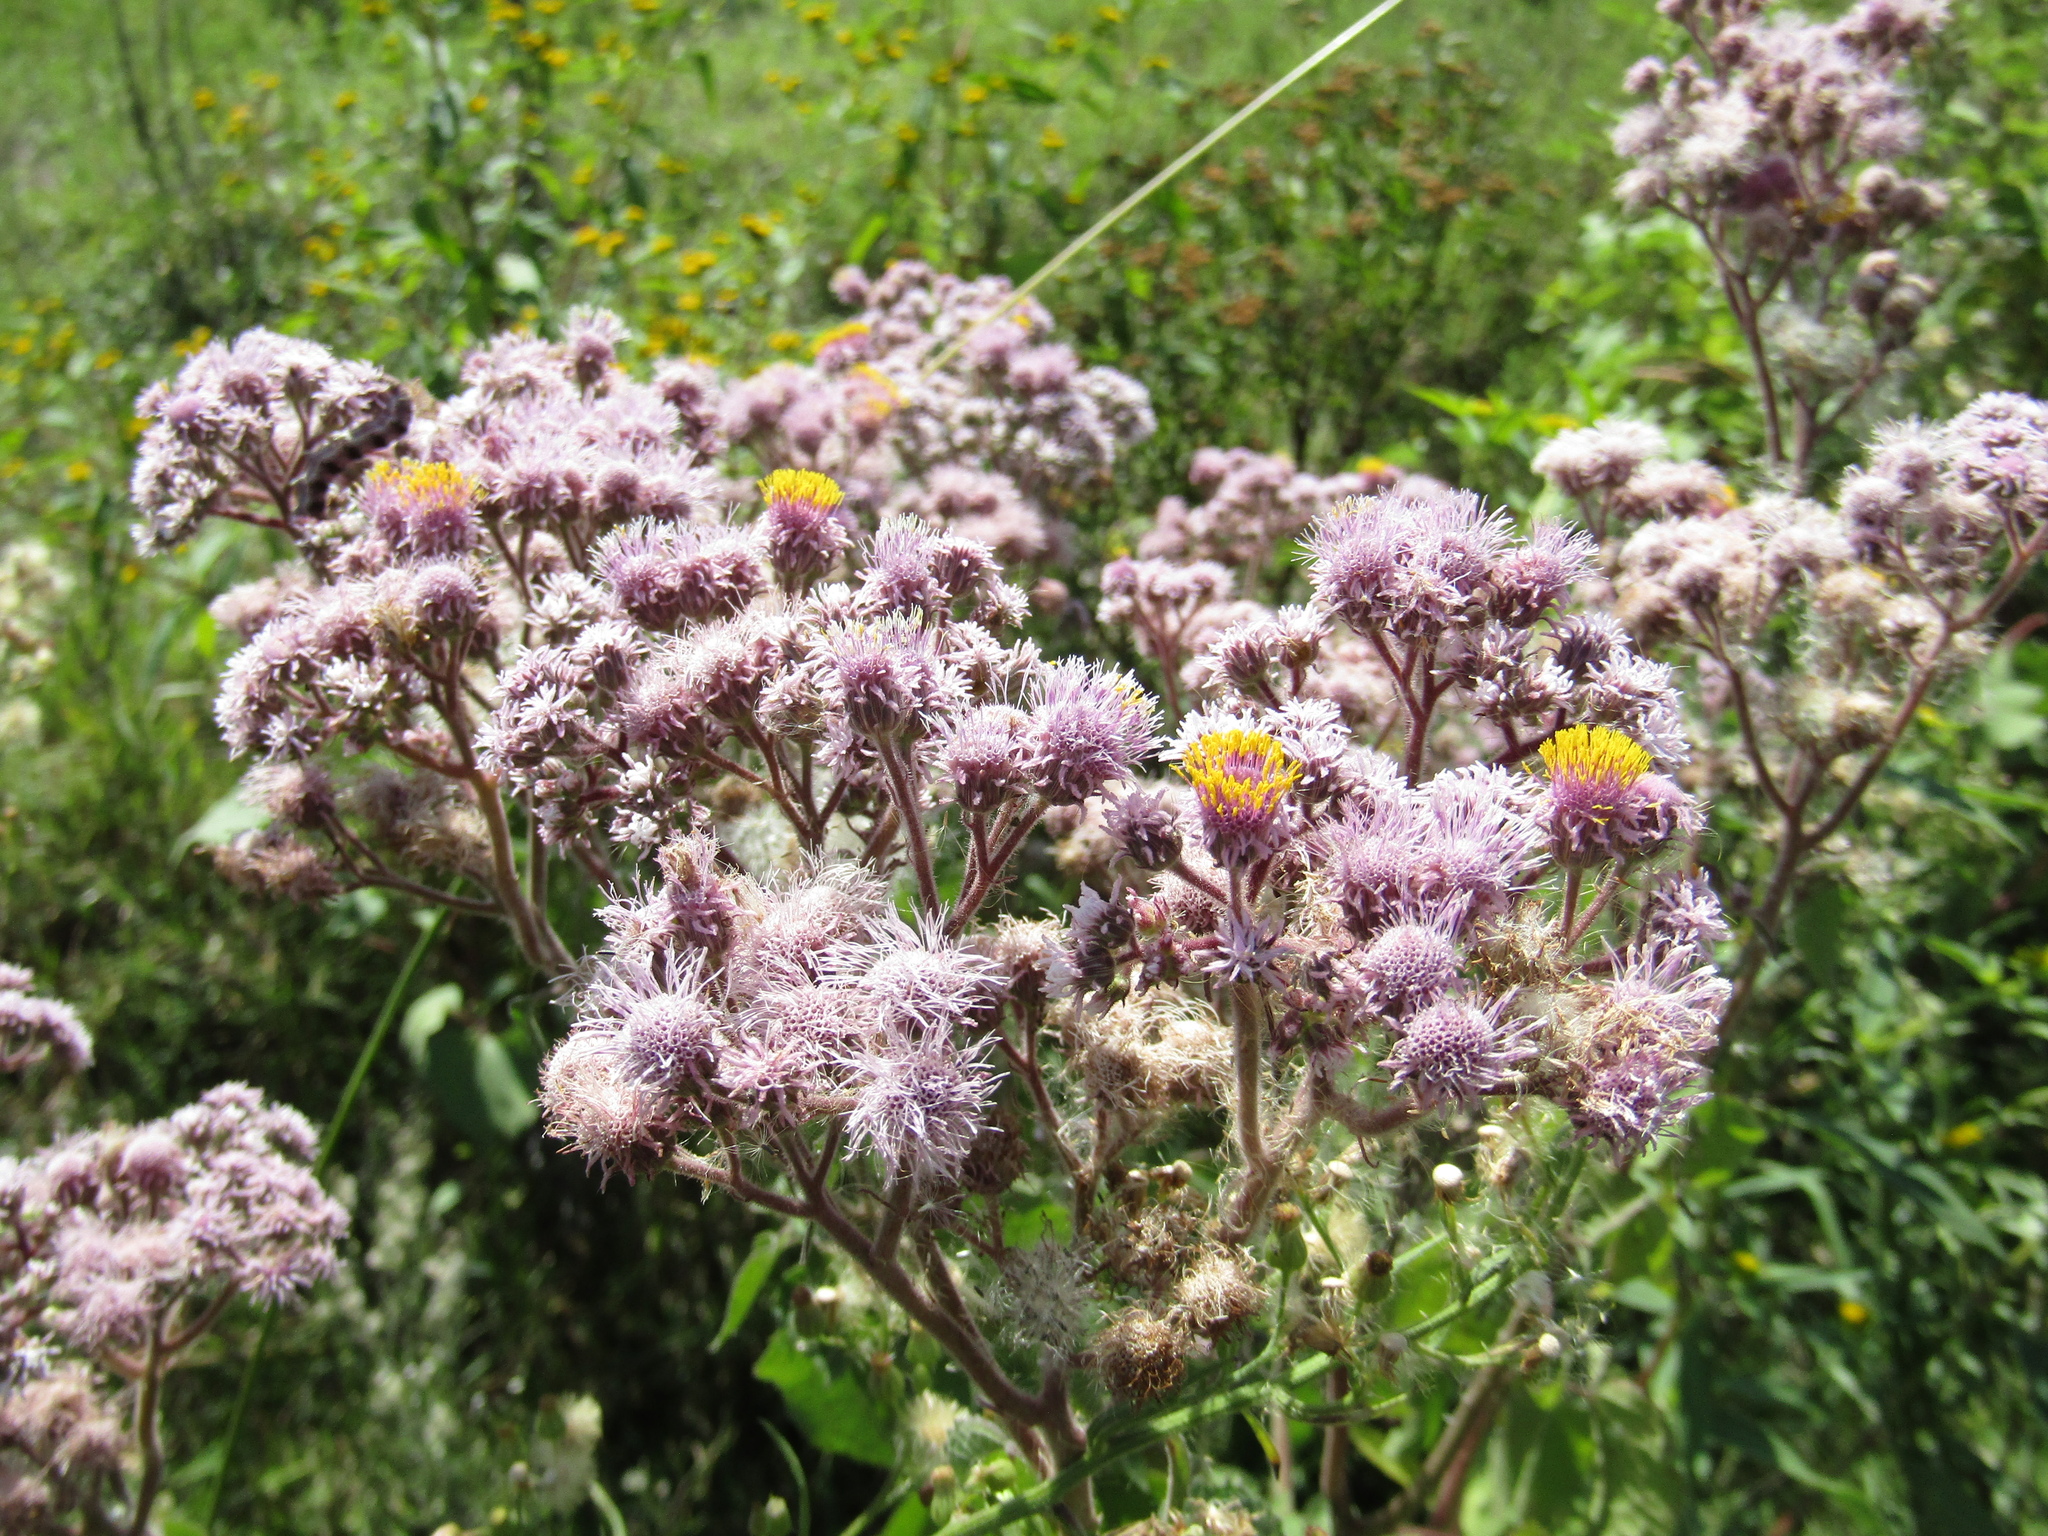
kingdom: Plantae
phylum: Tracheophyta
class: Magnoliopsida
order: Asterales
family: Asteraceae
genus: Urolepis
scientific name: Urolepis hecatantha
